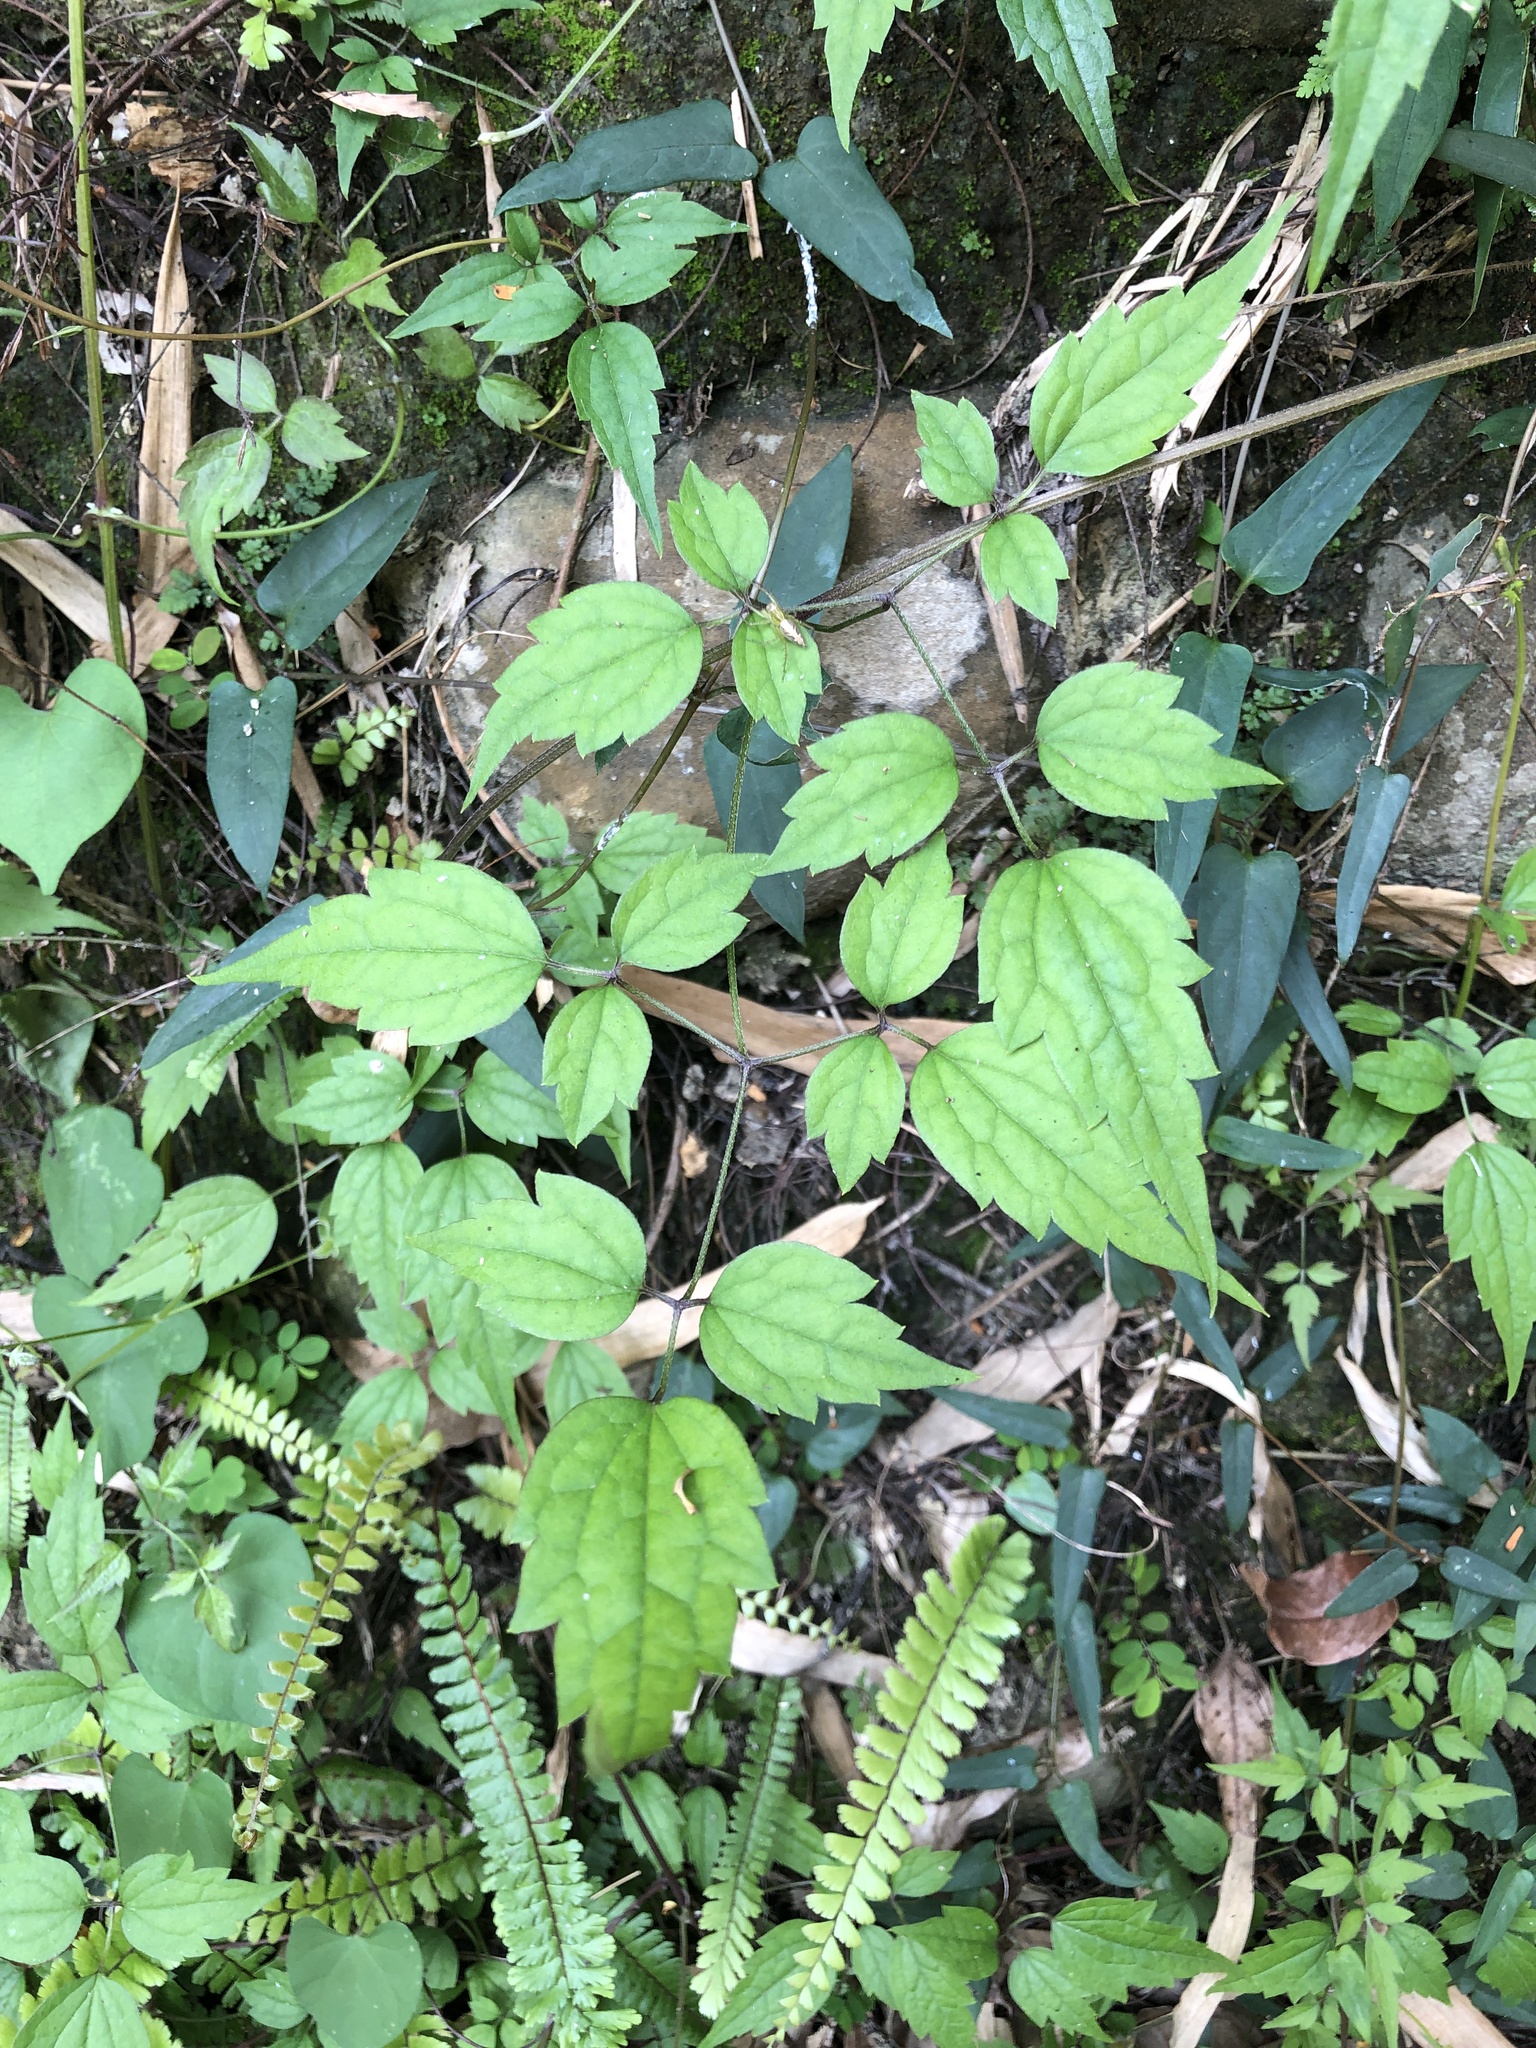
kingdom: Plantae
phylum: Tracheophyta
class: Magnoliopsida
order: Ranunculales
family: Ranunculaceae
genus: Clematis
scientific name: Clematis grata
